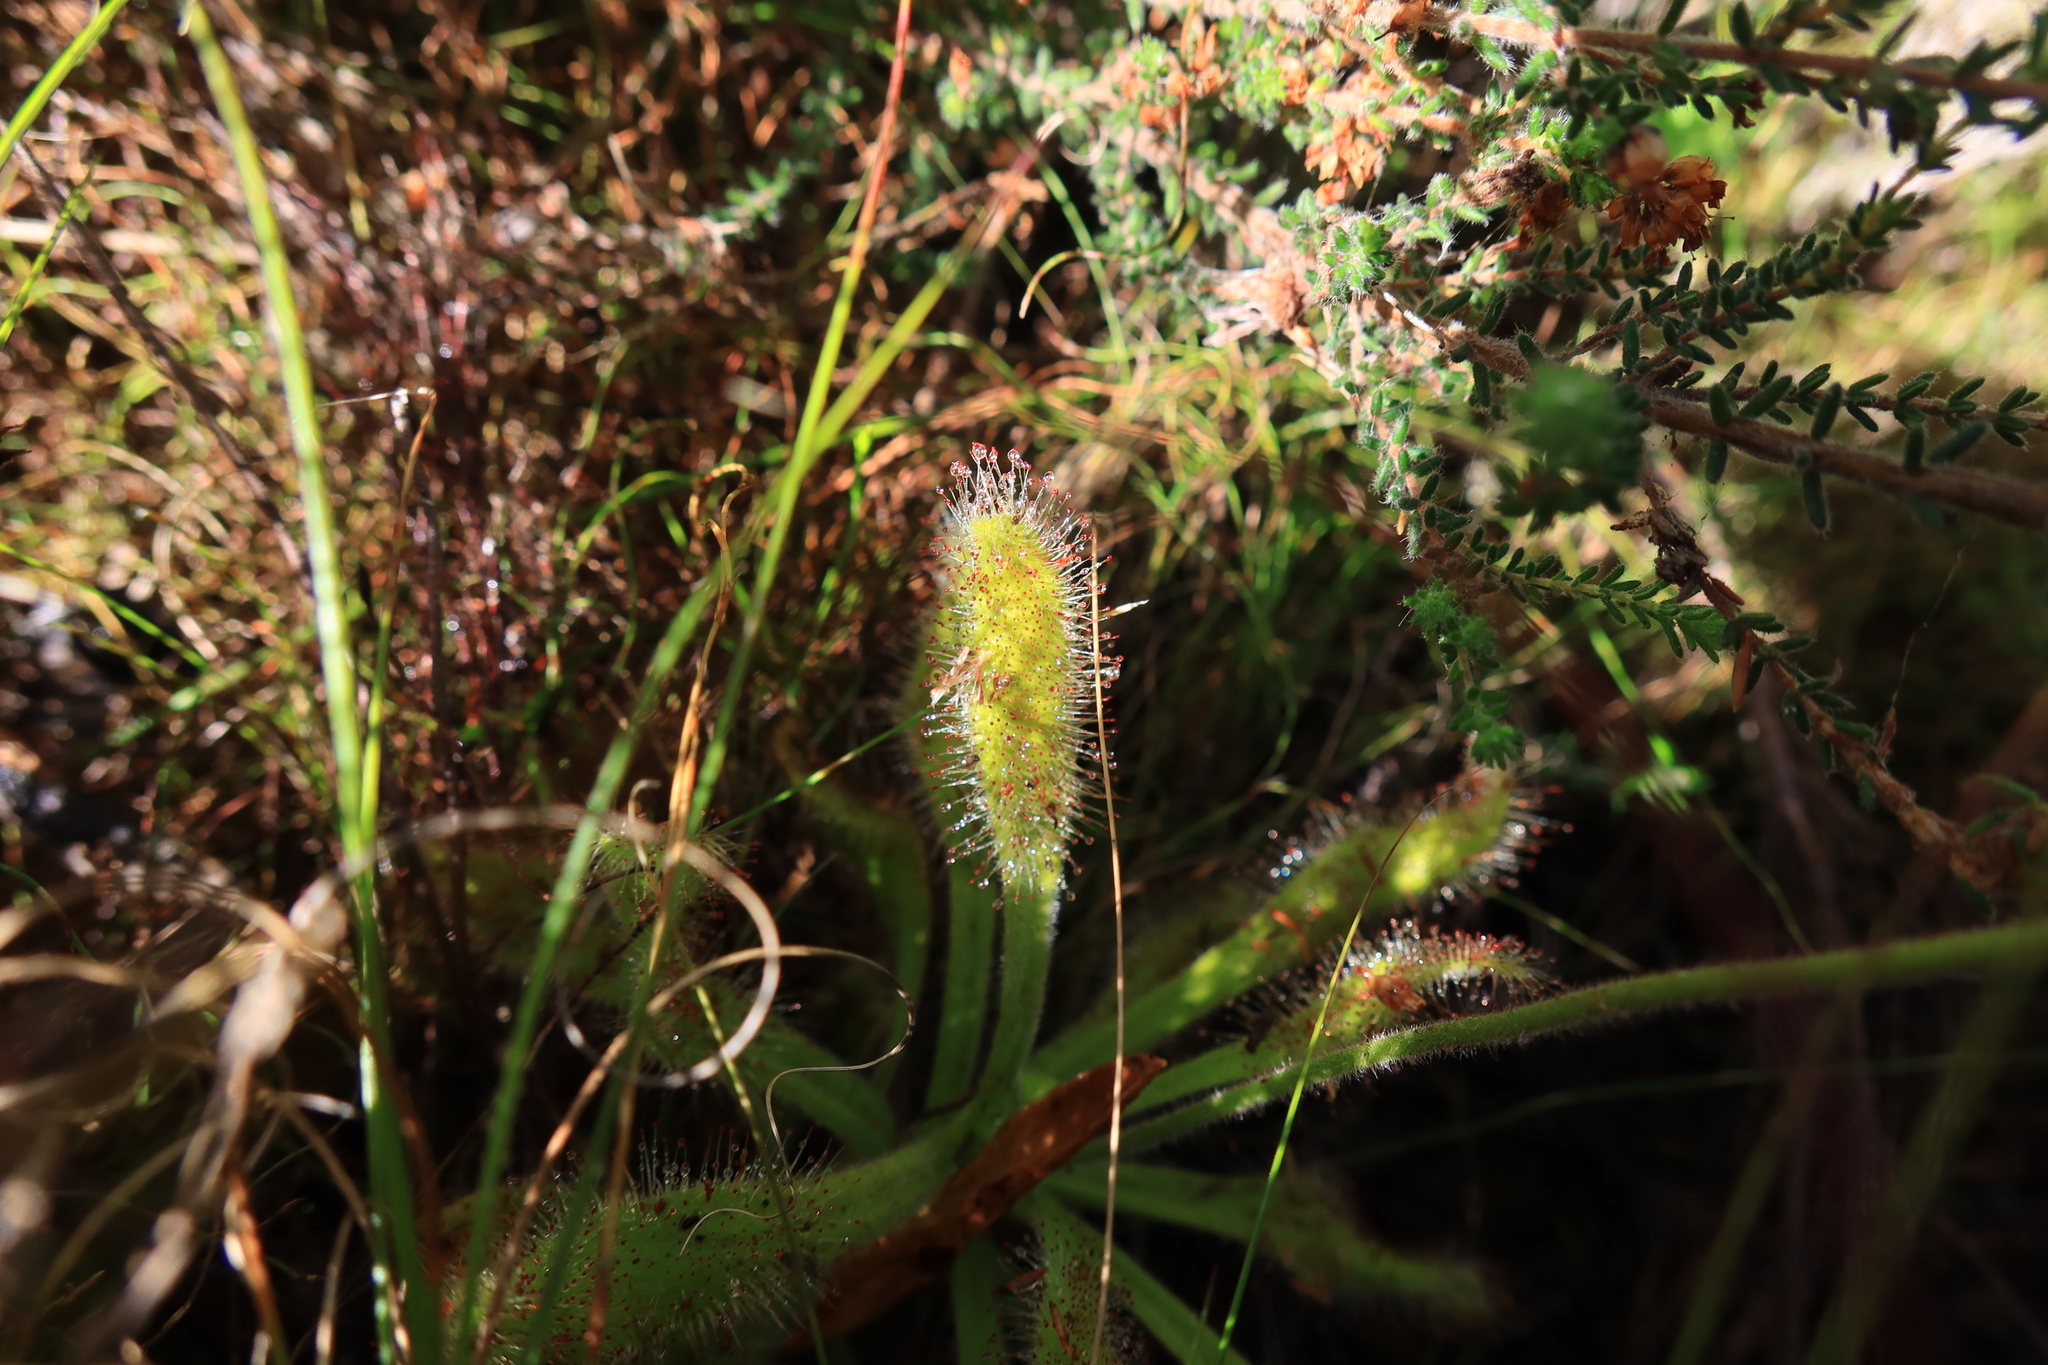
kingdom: Plantae
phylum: Tracheophyta
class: Magnoliopsida
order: Caryophyllales
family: Droseraceae
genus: Drosera
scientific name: Drosera hilaris
